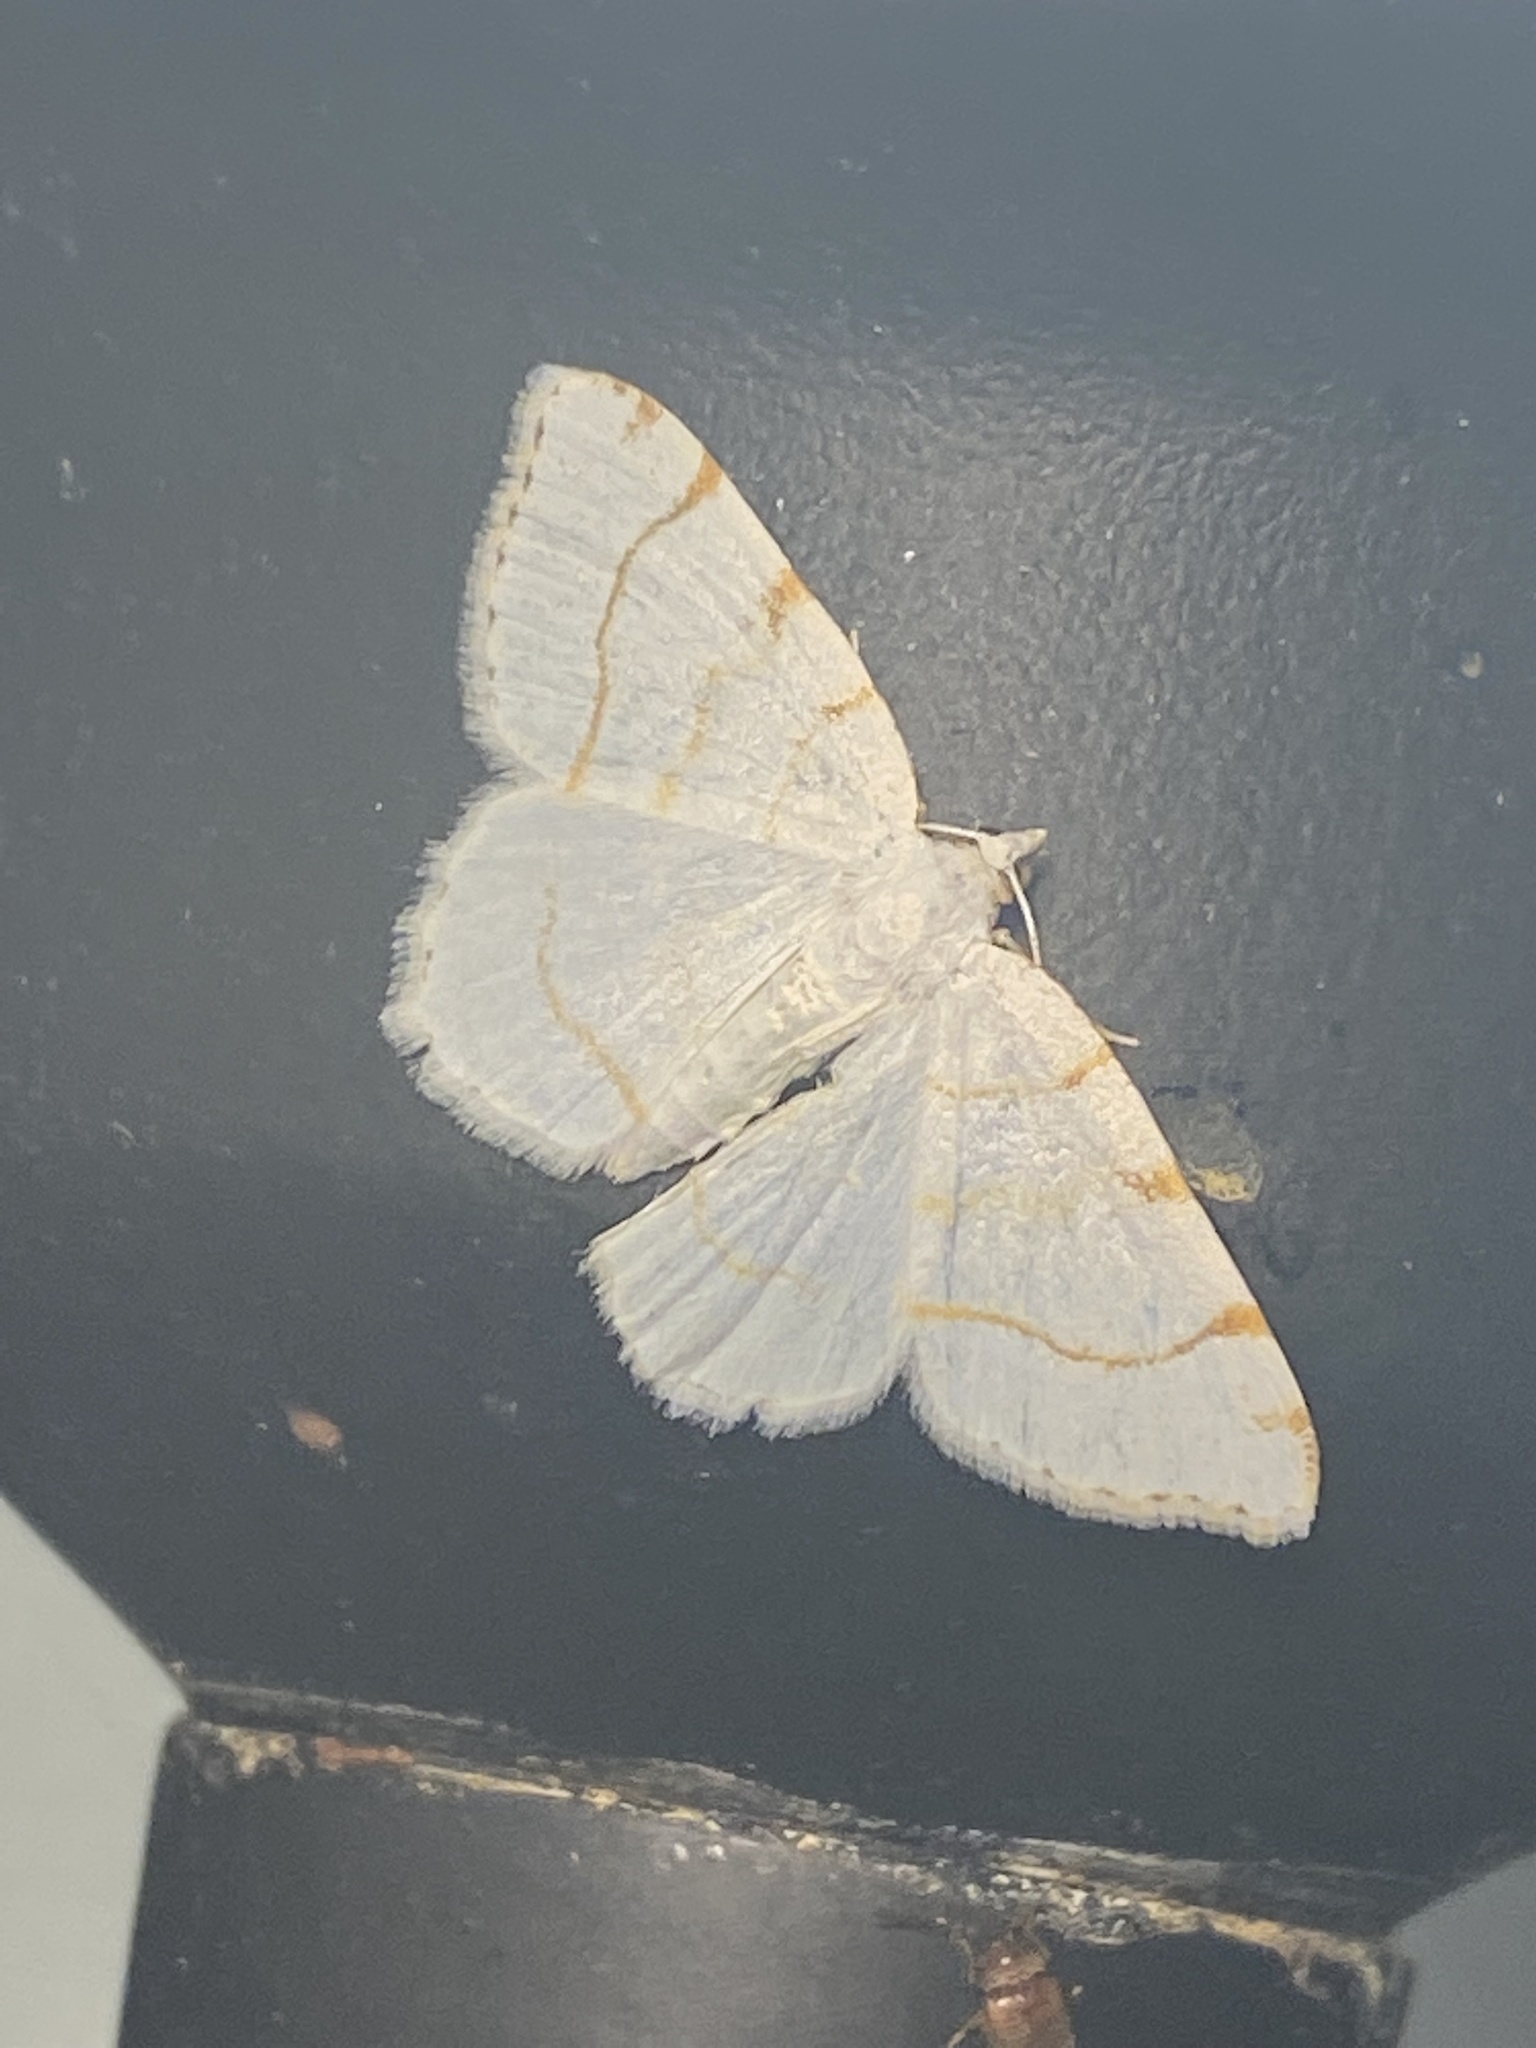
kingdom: Animalia
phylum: Arthropoda
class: Insecta
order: Lepidoptera
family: Geometridae
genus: Macaria
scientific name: Macaria pustularia
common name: Lesser maple spanworm moth
